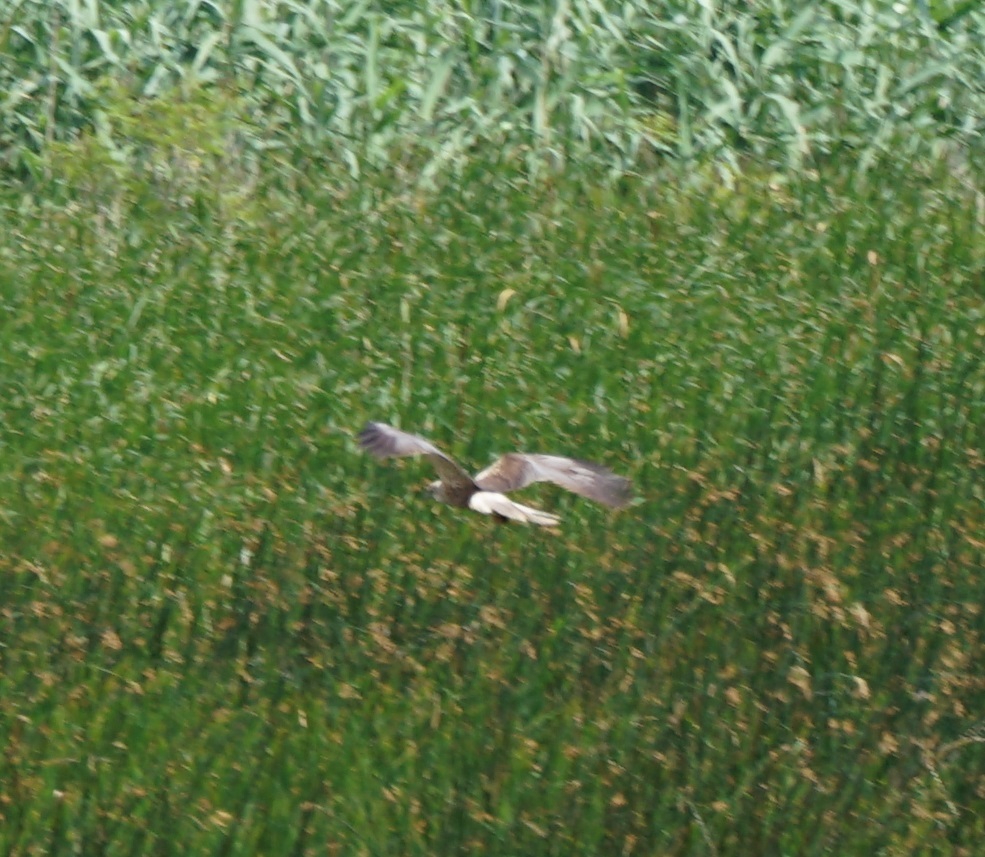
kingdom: Animalia
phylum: Chordata
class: Aves
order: Accipitriformes
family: Accipitridae
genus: Circus
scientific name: Circus aeruginosus
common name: Western marsh harrier
